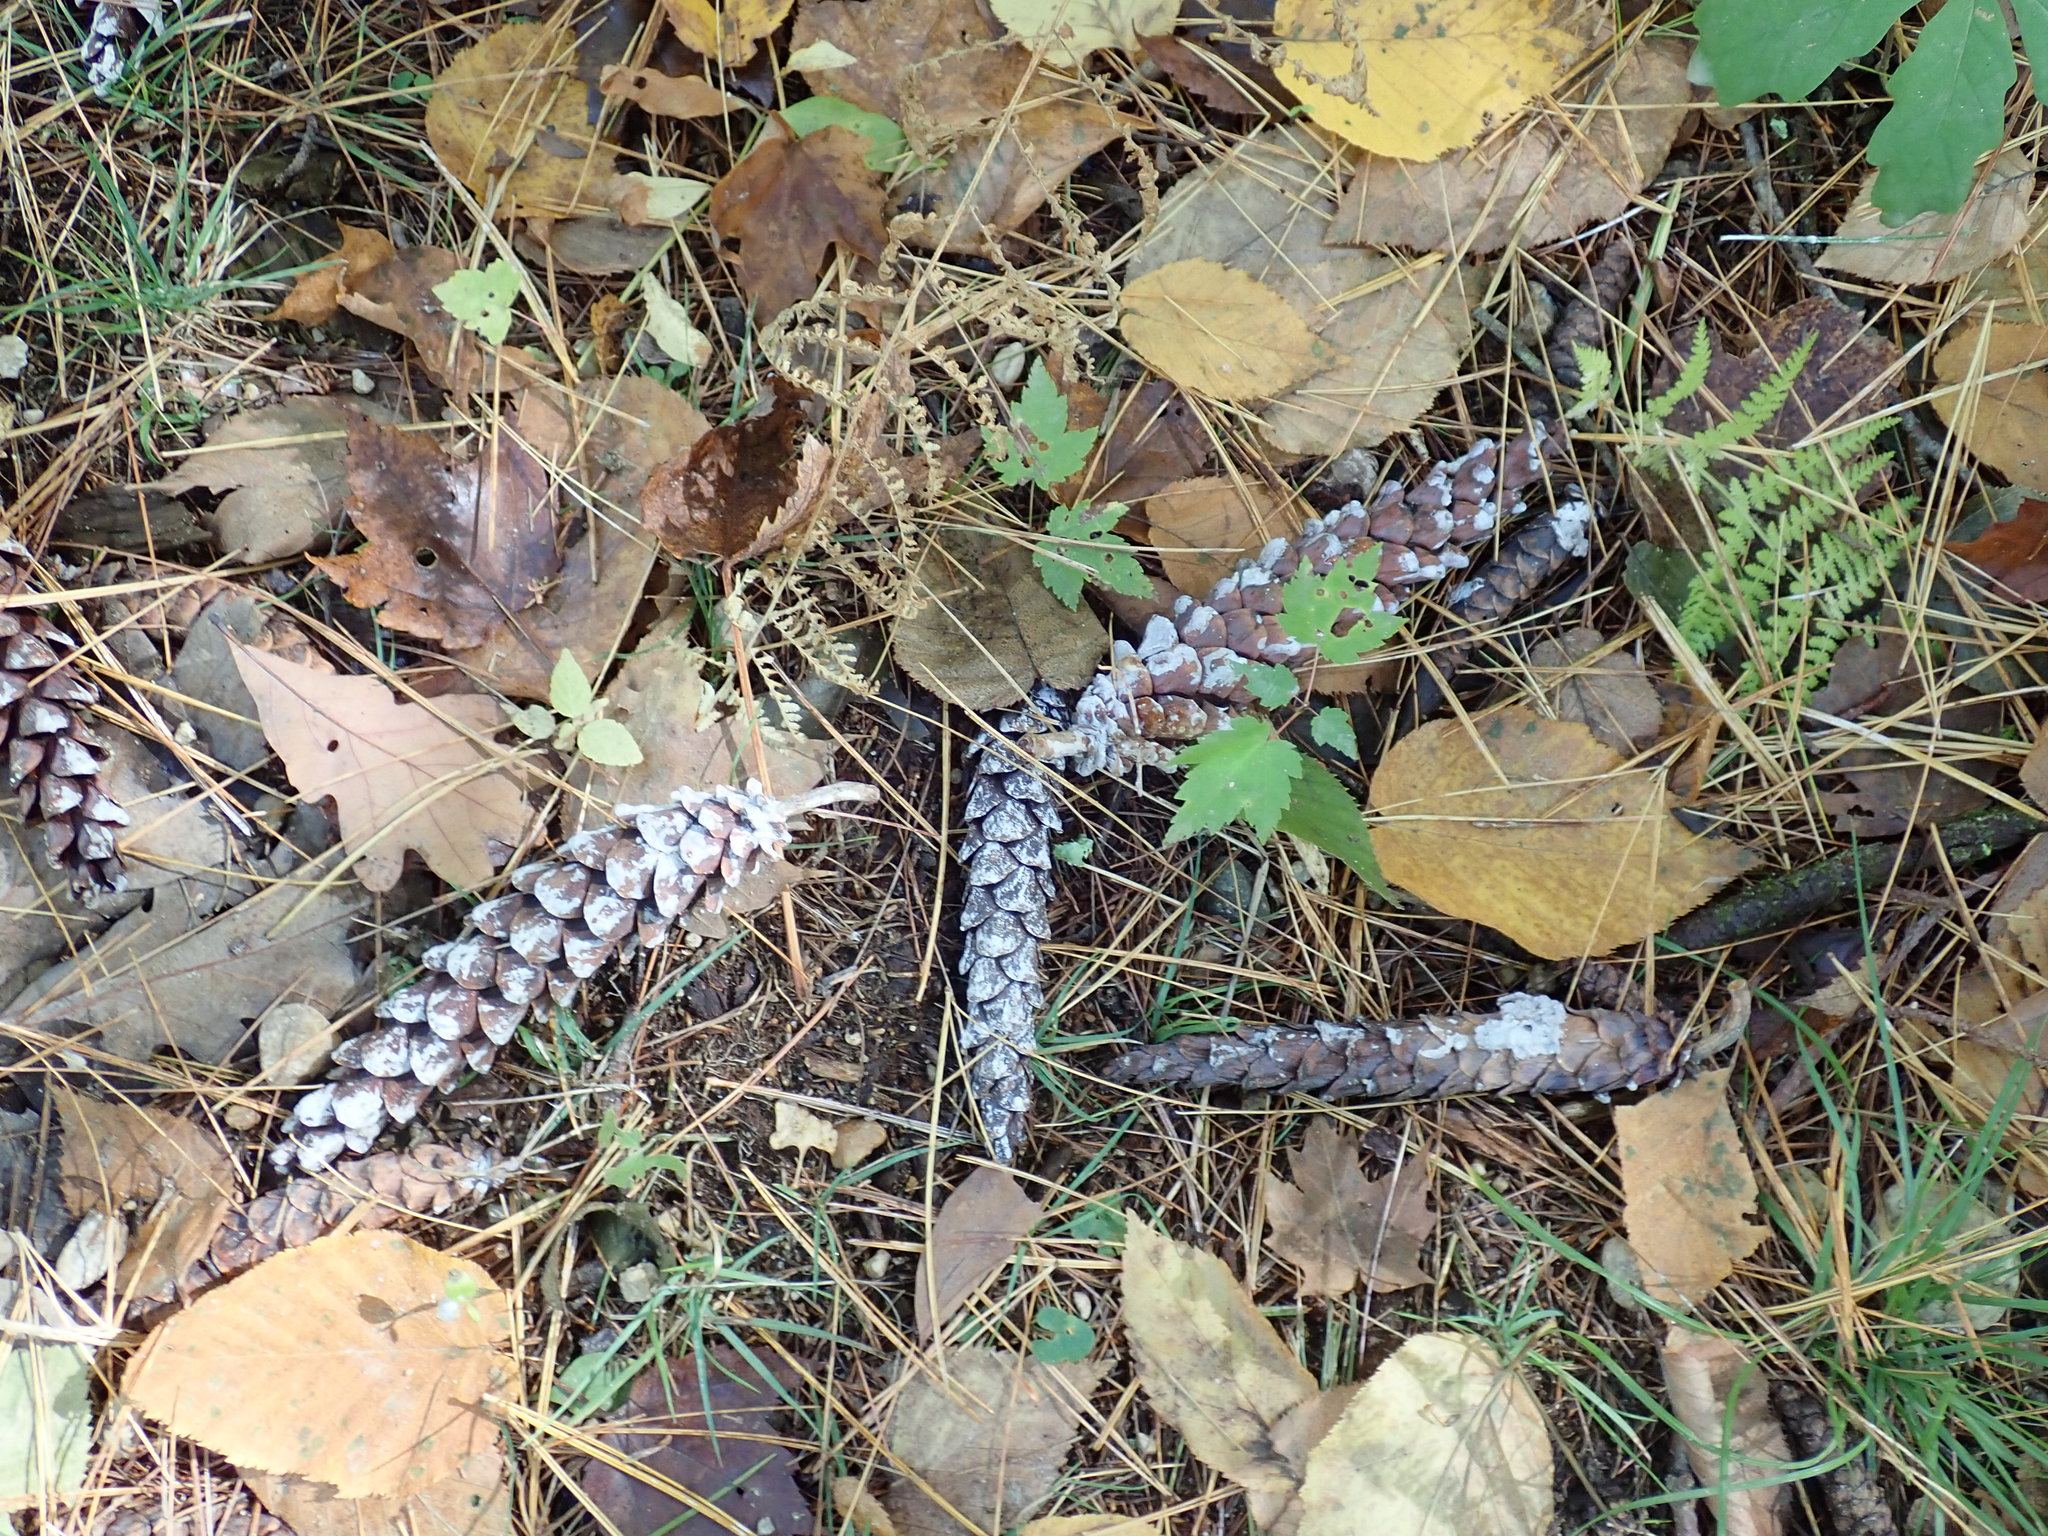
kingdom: Plantae
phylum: Tracheophyta
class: Pinopsida
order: Pinales
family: Pinaceae
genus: Pinus
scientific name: Pinus strobus
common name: Weymouth pine
